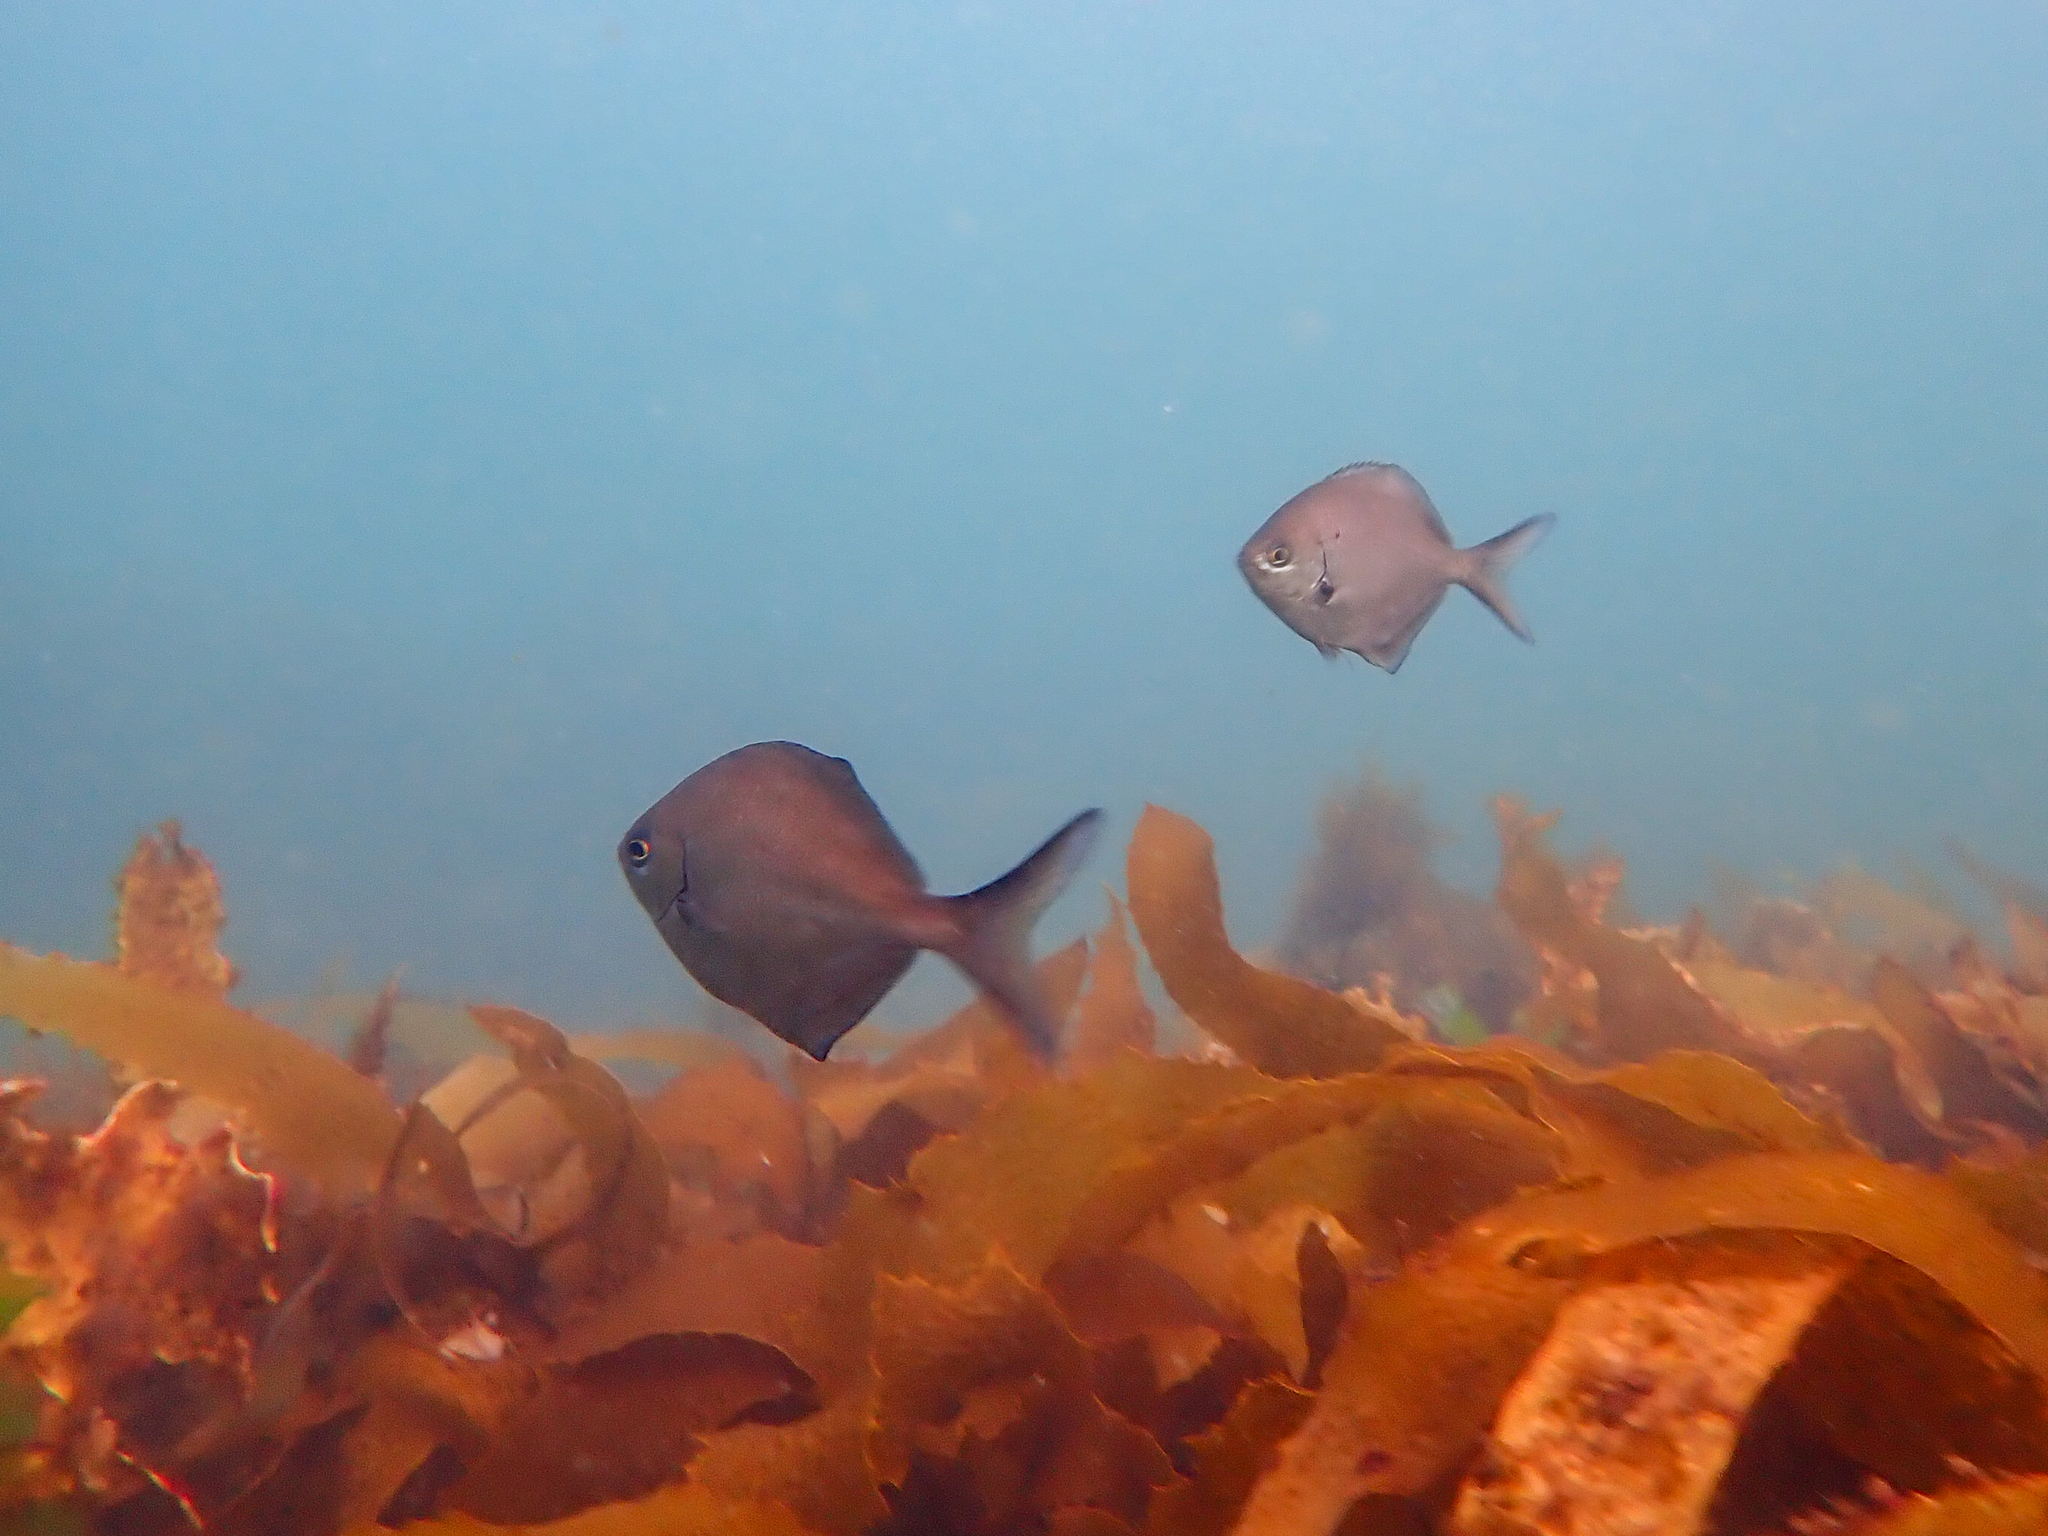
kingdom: Animalia
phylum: Chordata
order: Perciformes
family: Kyphosidae
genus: Scorpis
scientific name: Scorpis lineolata
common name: Sweep
